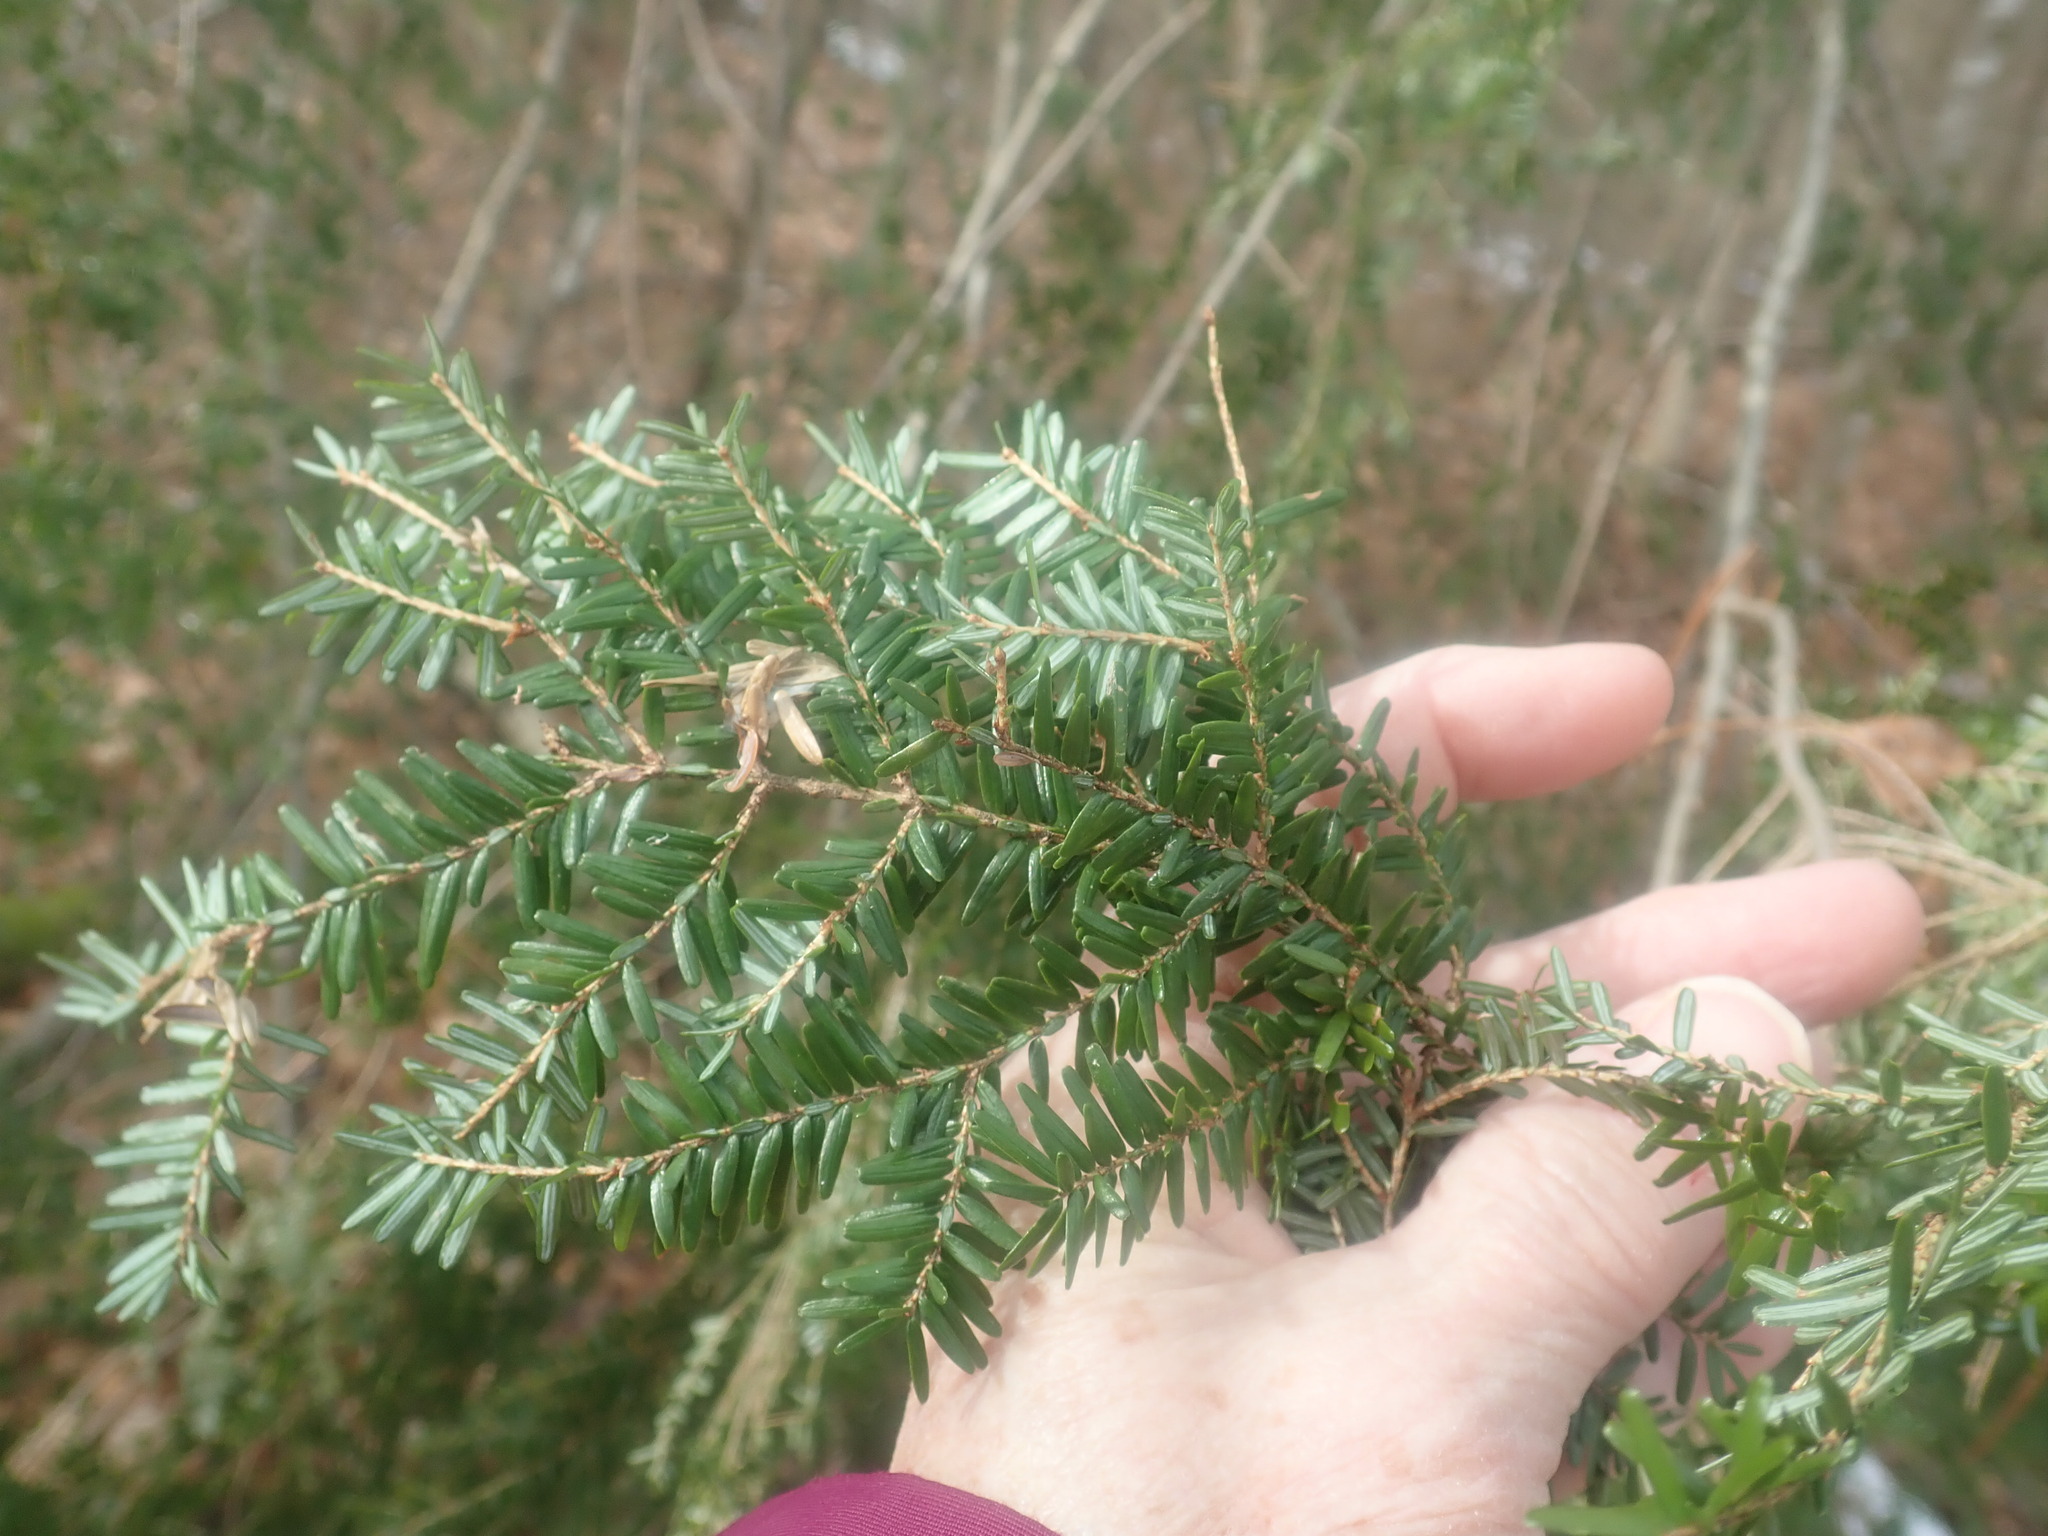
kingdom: Plantae
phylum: Tracheophyta
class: Pinopsida
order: Pinales
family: Pinaceae
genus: Tsuga
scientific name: Tsuga canadensis
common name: Eastern hemlock
